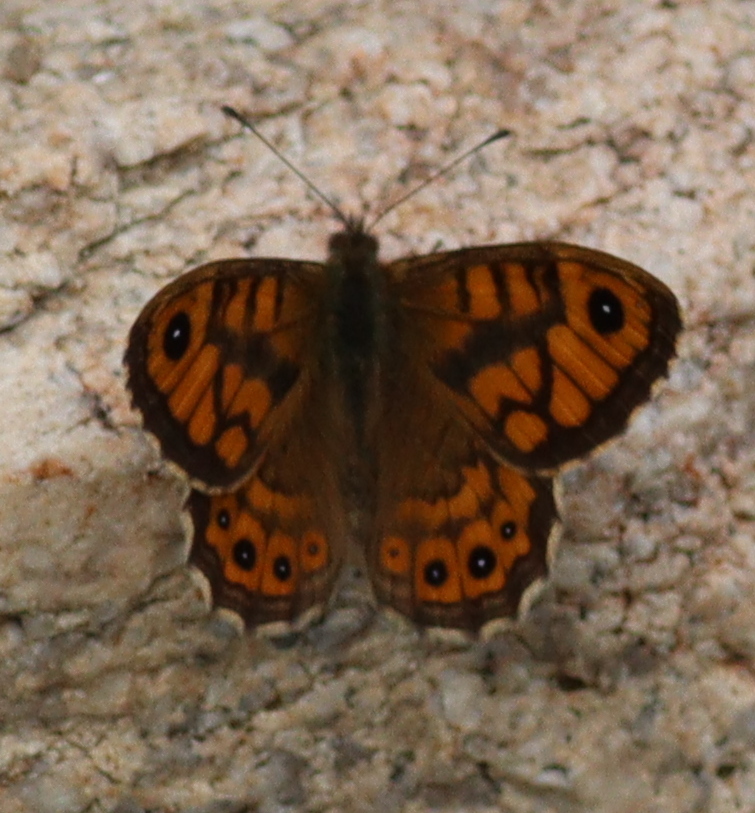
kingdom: Animalia
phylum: Arthropoda
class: Insecta
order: Lepidoptera
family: Nymphalidae
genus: Pararge
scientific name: Pararge Lasiommata megera
